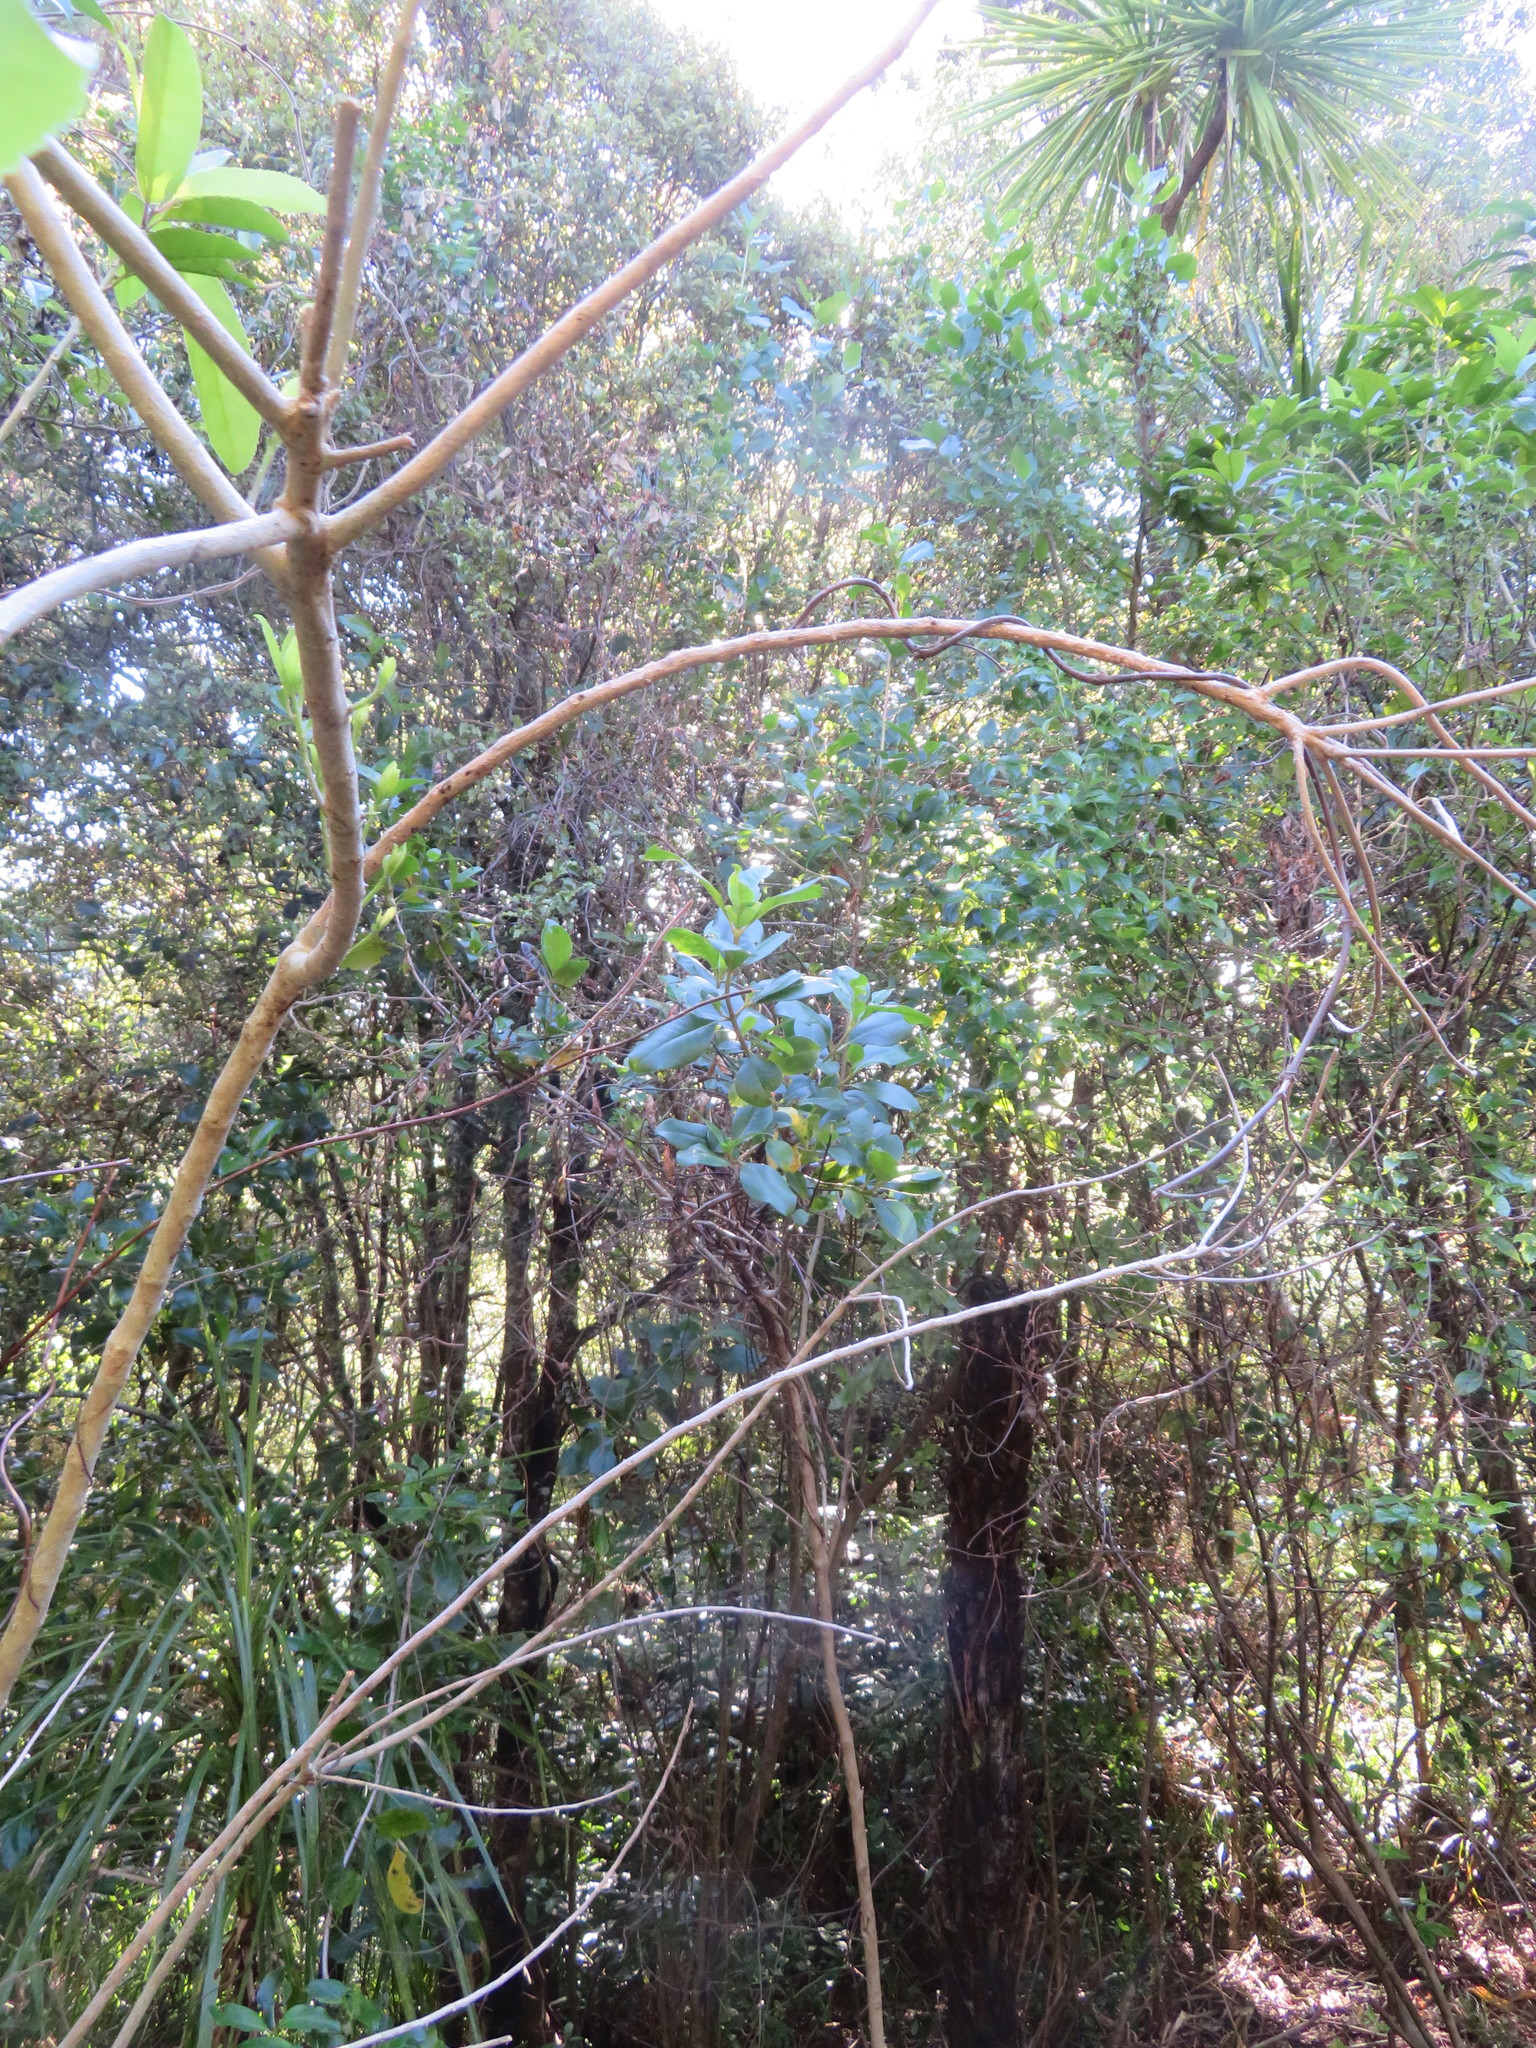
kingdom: Plantae
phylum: Tracheophyta
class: Magnoliopsida
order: Gentianales
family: Rubiaceae
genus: Coprosma
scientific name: Coprosma robusta
